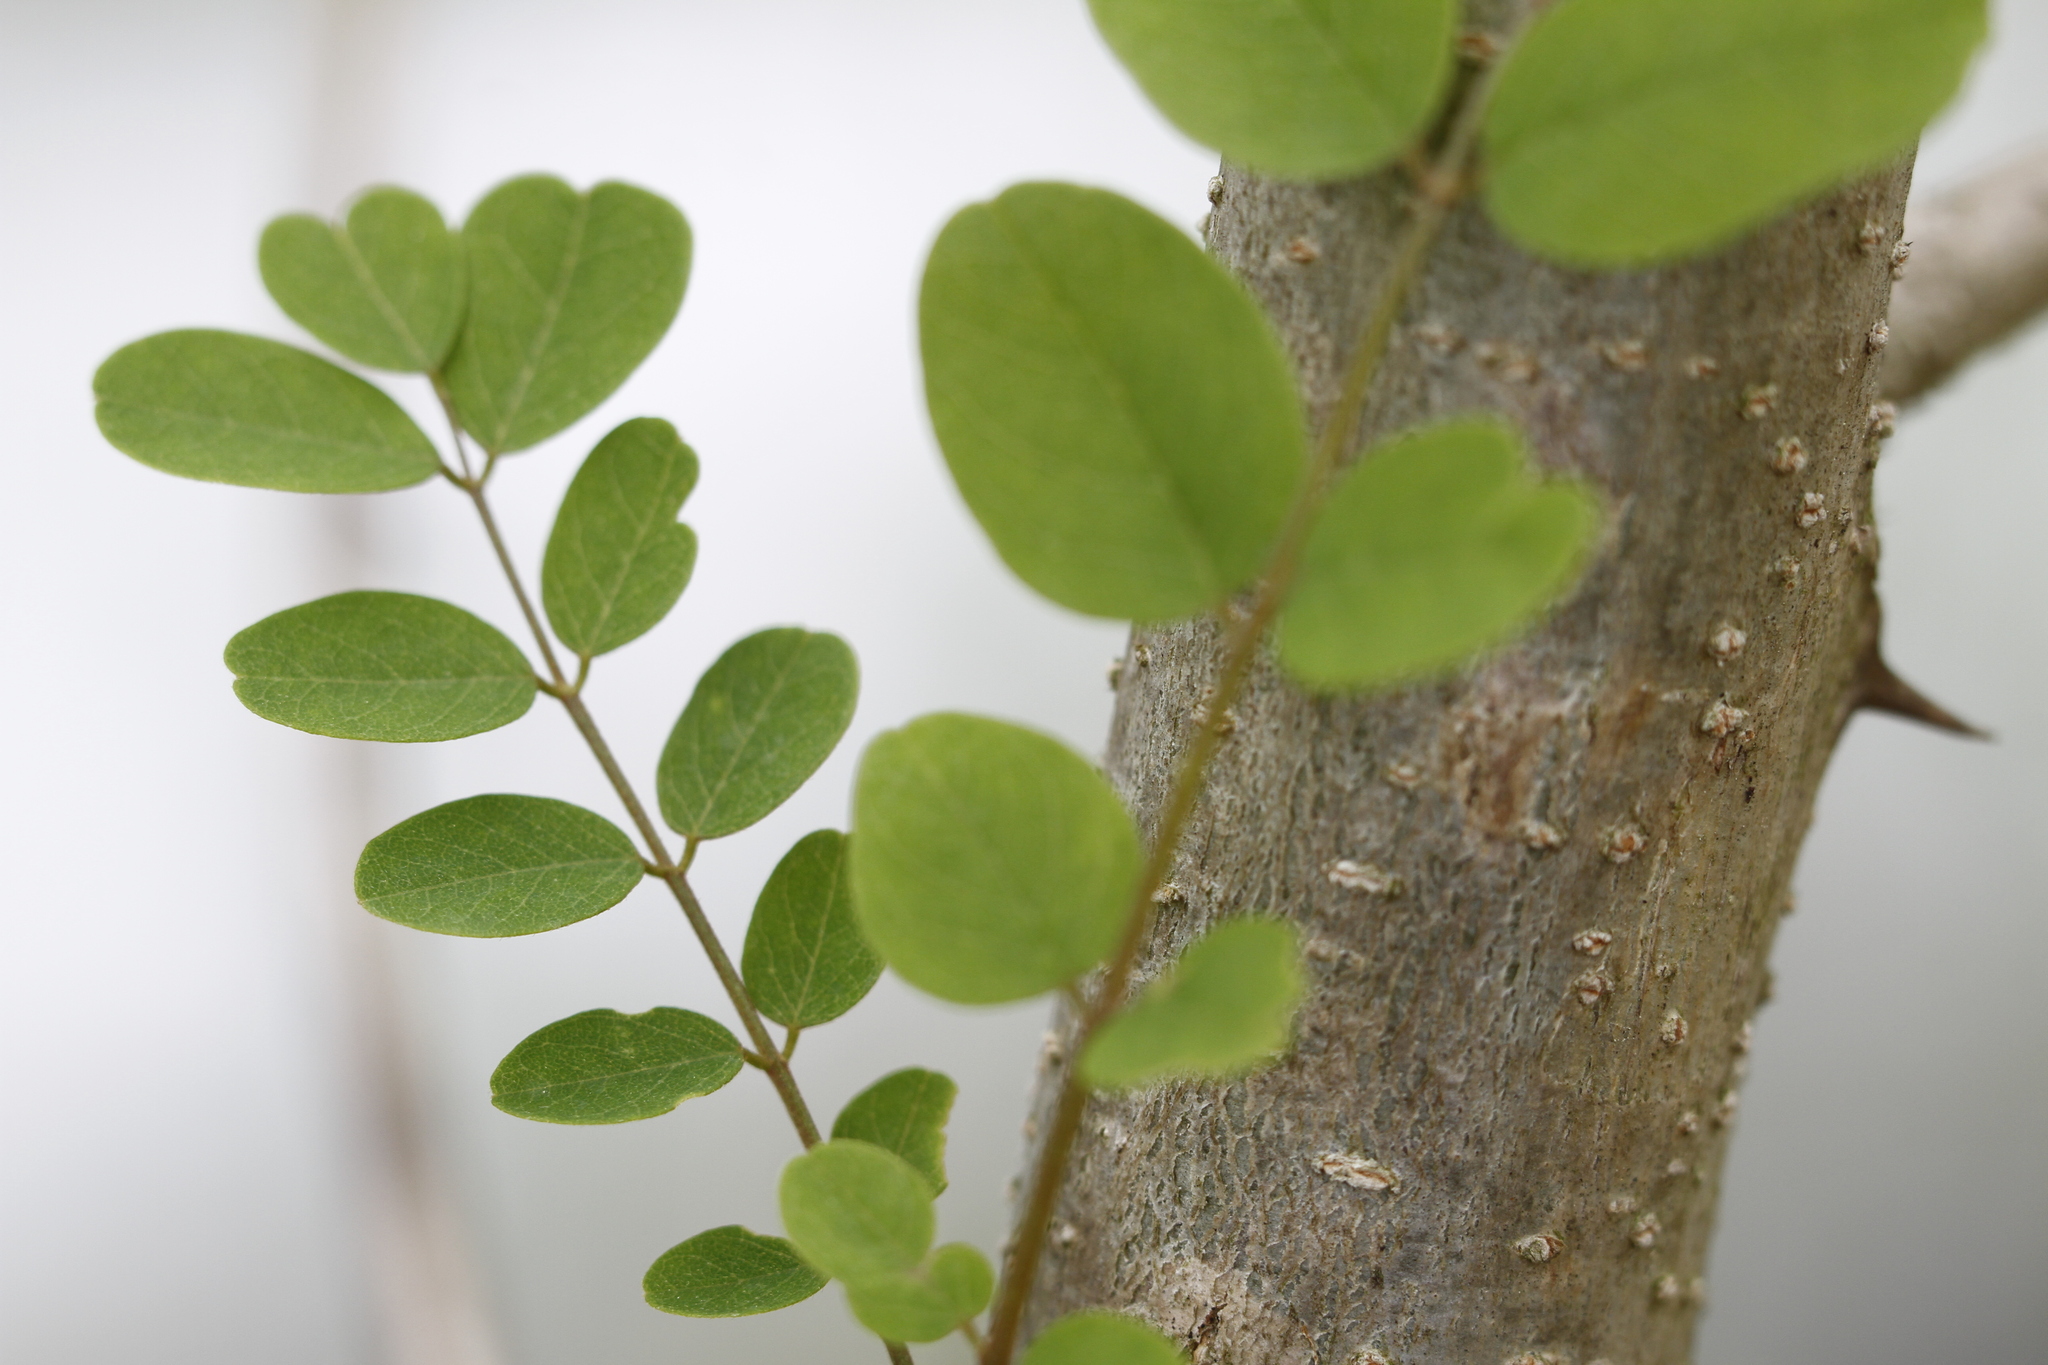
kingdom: Plantae
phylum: Tracheophyta
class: Magnoliopsida
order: Fabales
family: Fabaceae
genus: Robinia
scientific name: Robinia pseudoacacia
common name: Black locust
